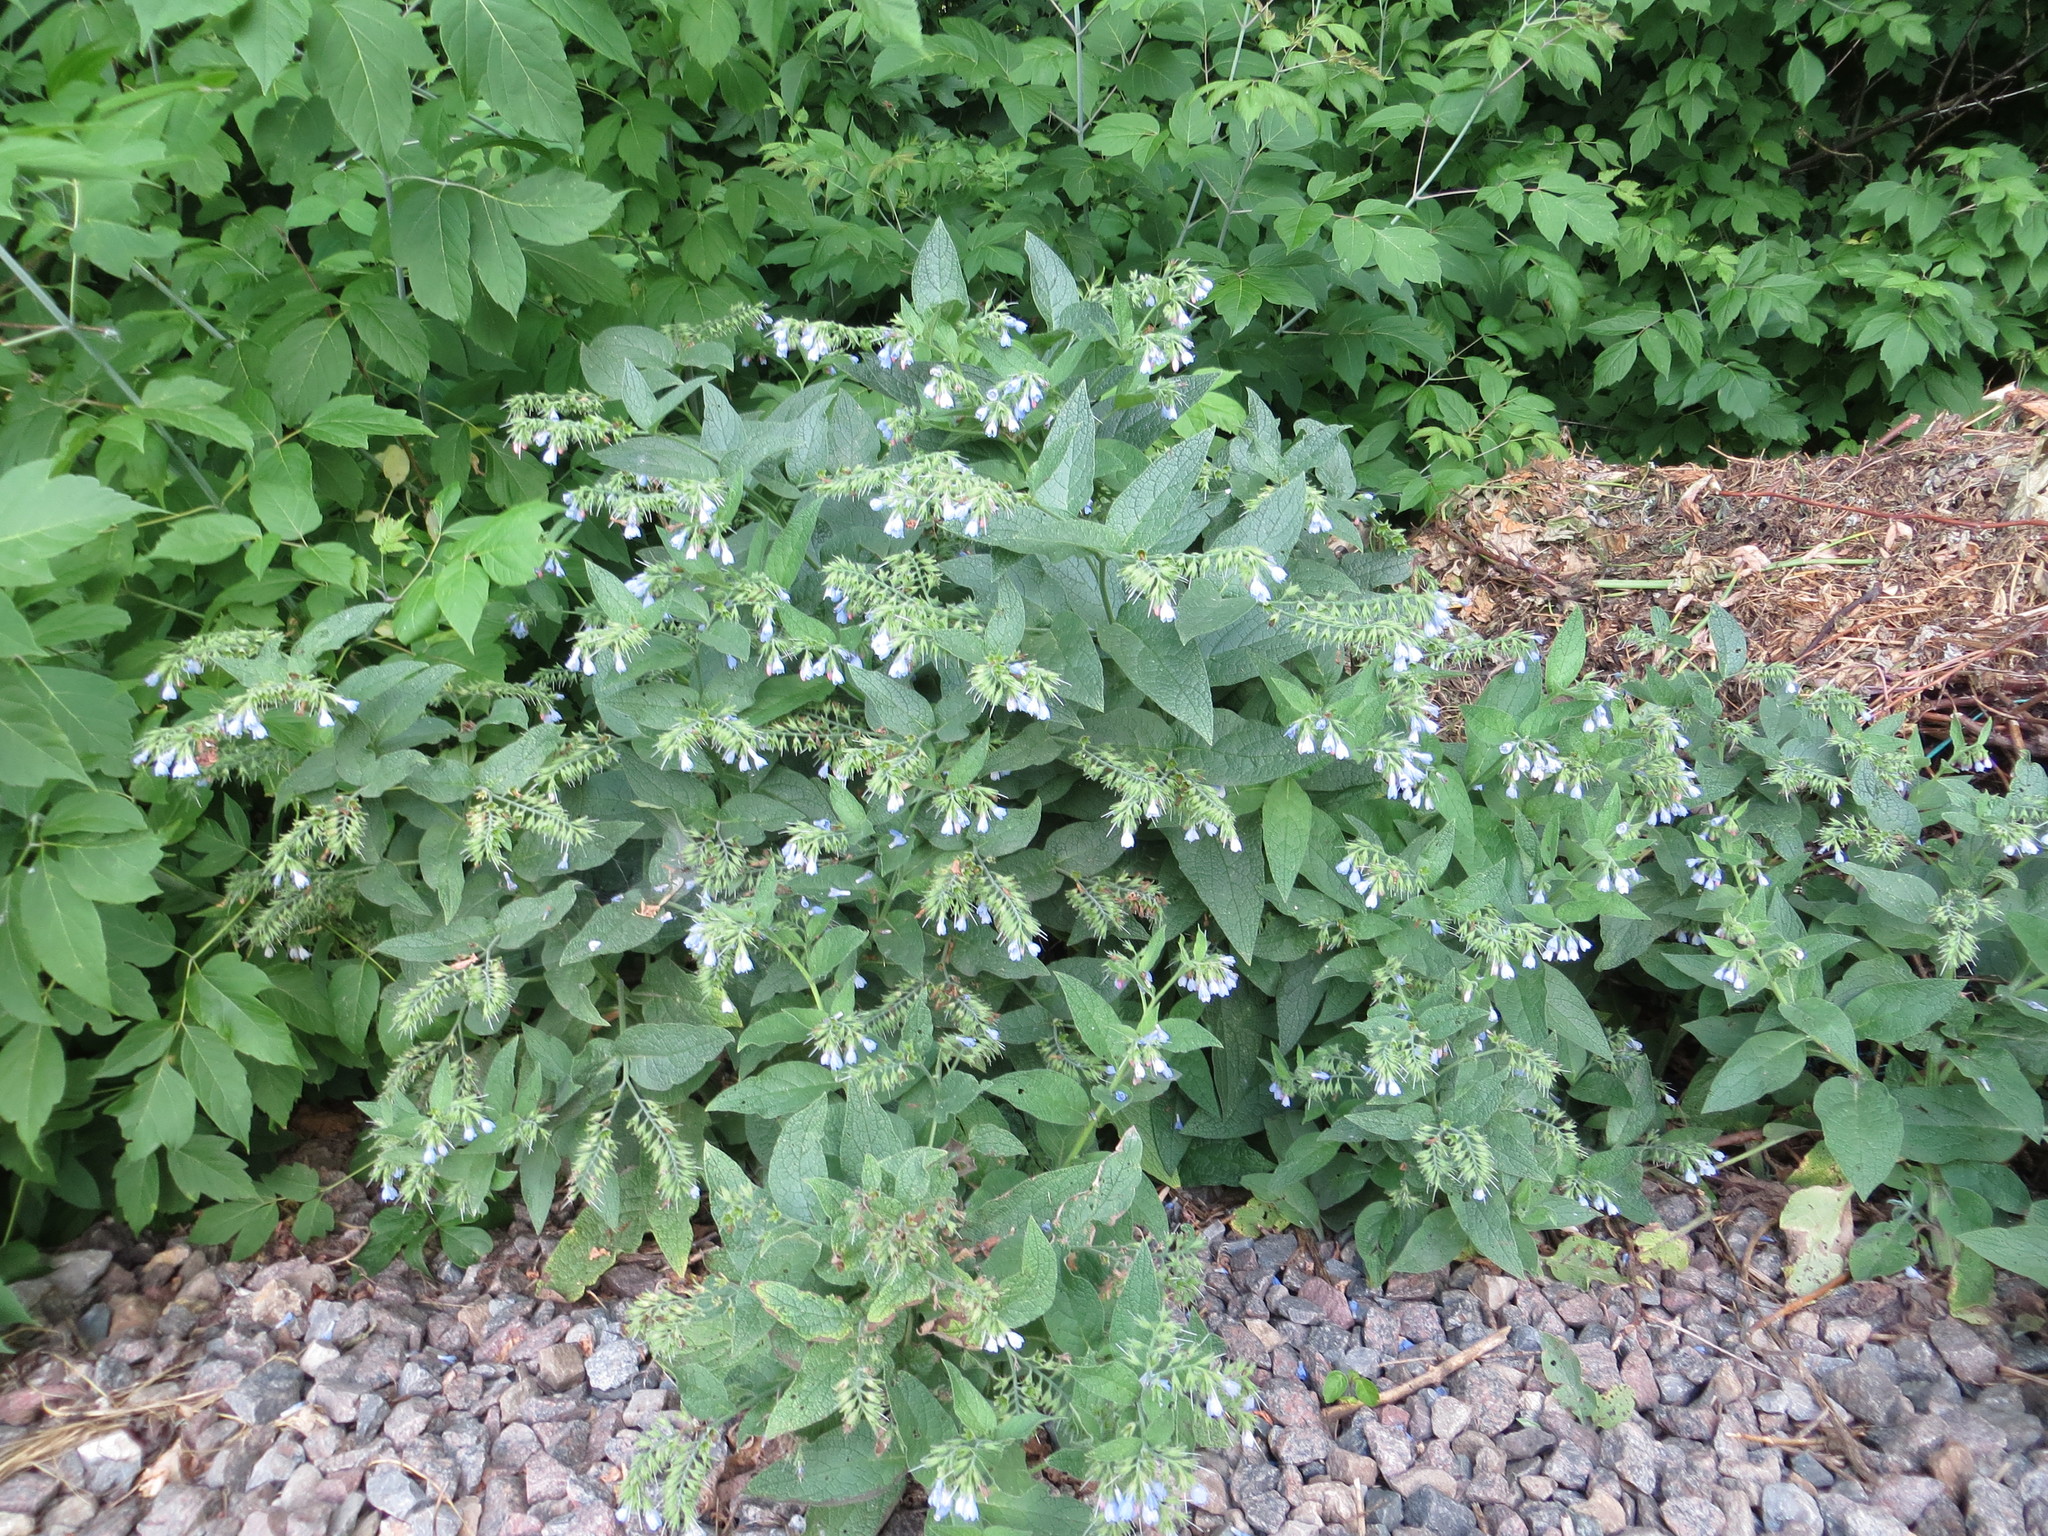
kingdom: Plantae
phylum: Tracheophyta
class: Magnoliopsida
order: Boraginales
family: Boraginaceae
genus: Symphytum
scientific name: Symphytum caucasicum
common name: Caucasian comfrey
